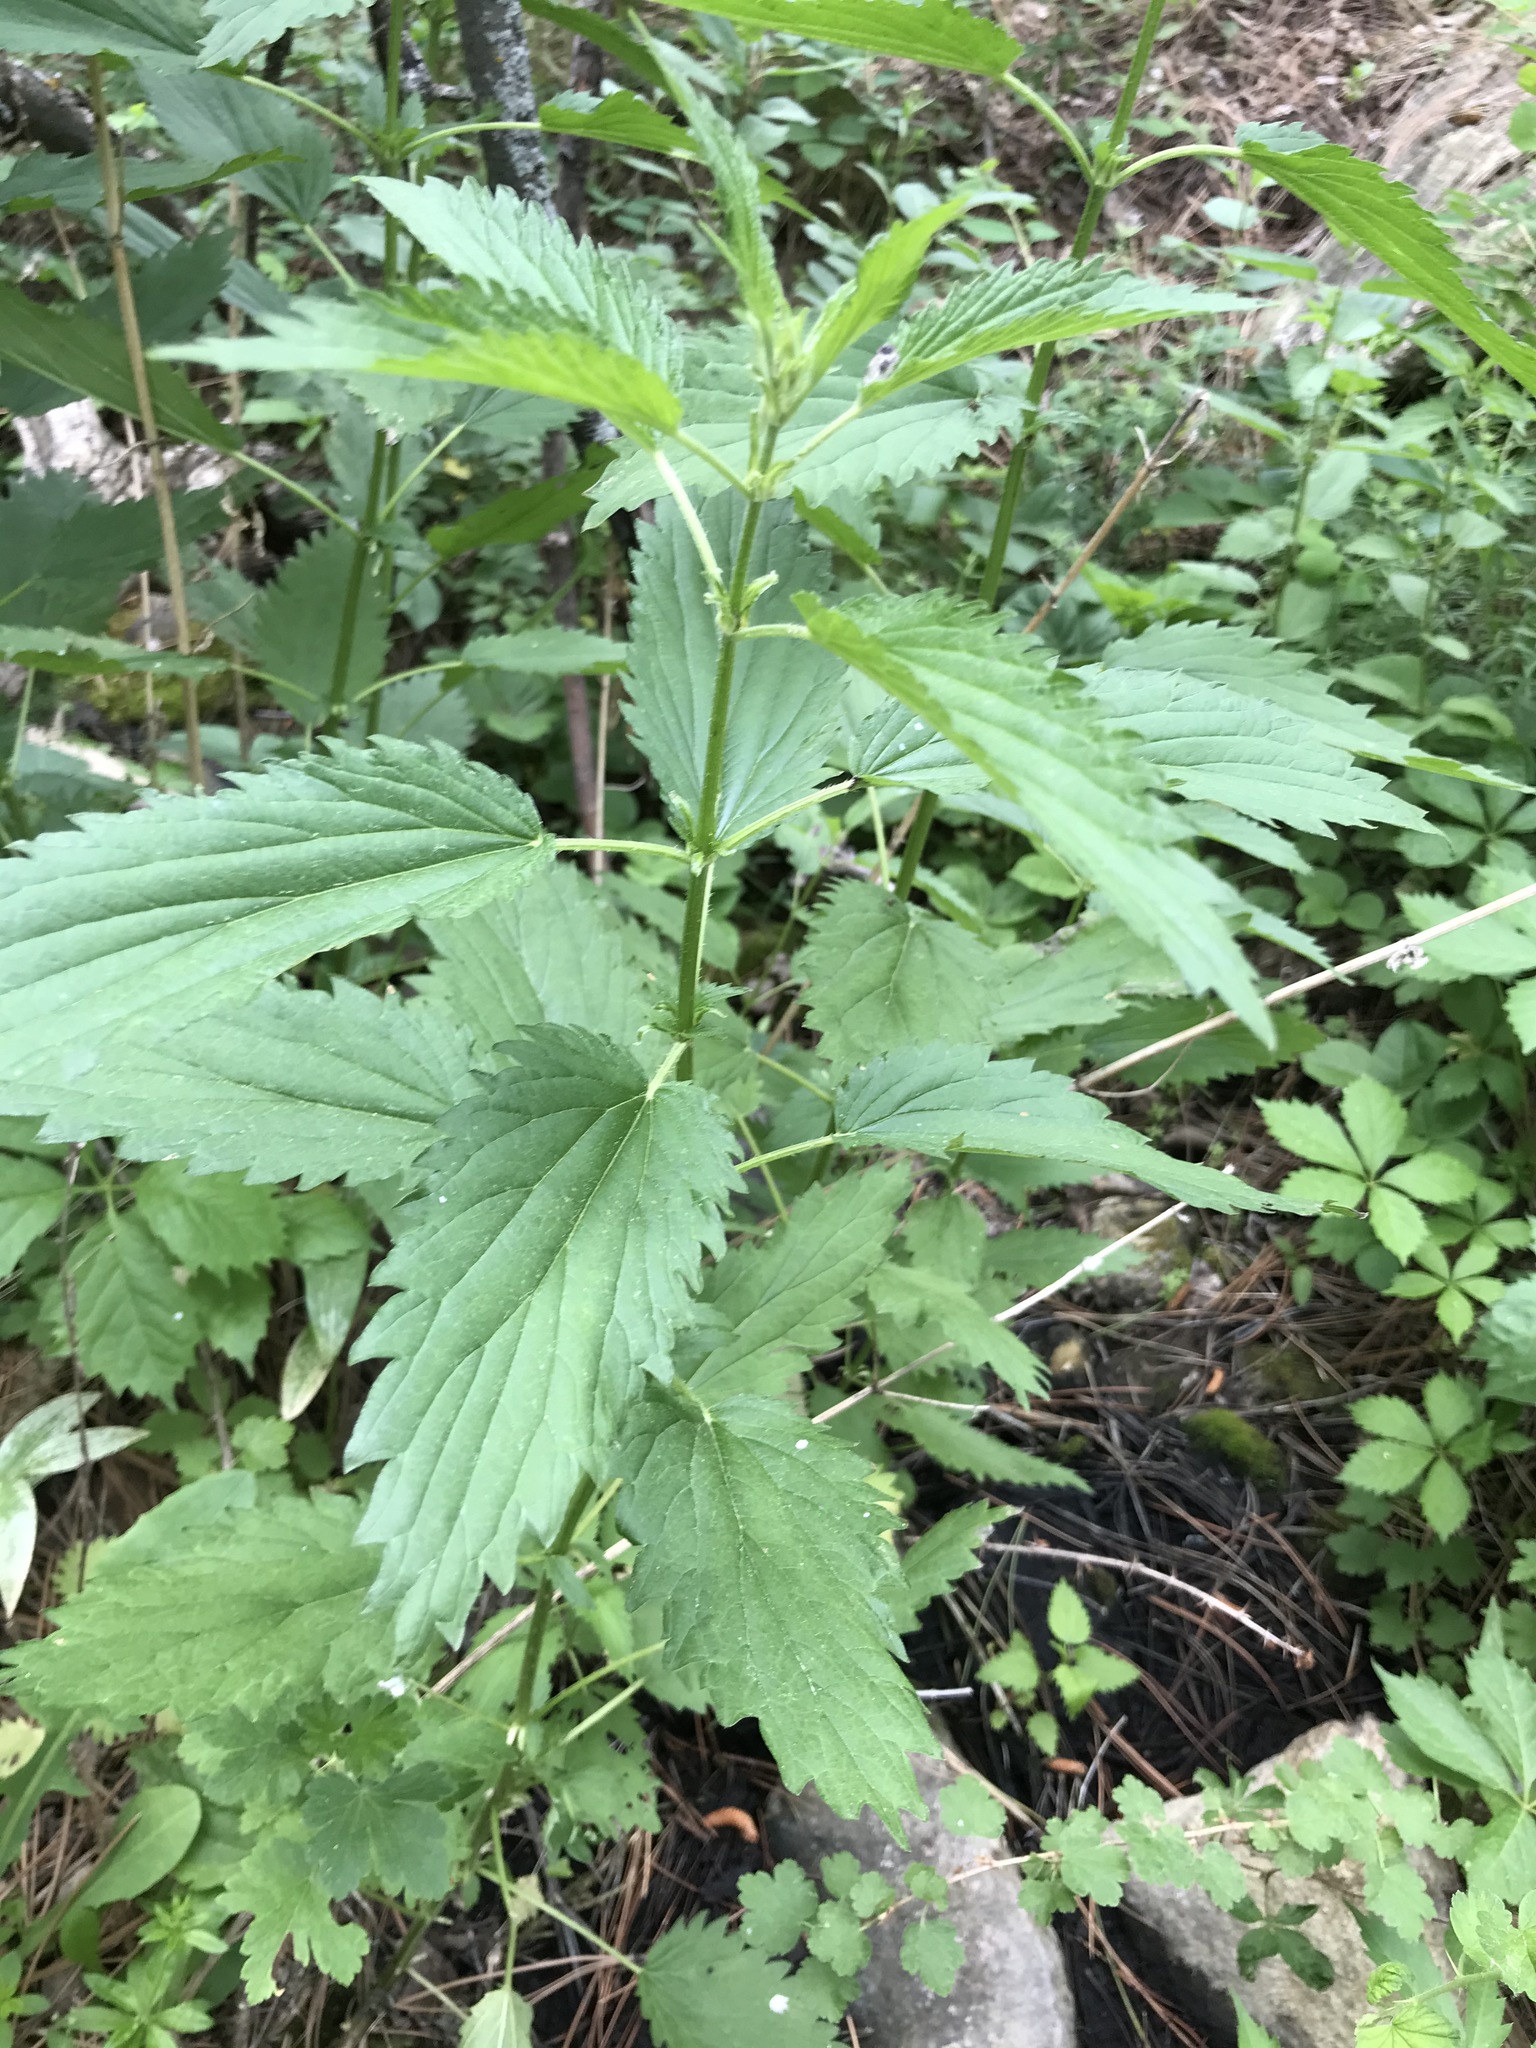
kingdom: Plantae
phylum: Tracheophyta
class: Magnoliopsida
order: Rosales
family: Urticaceae
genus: Urtica
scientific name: Urtica dioica
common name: Common nettle
